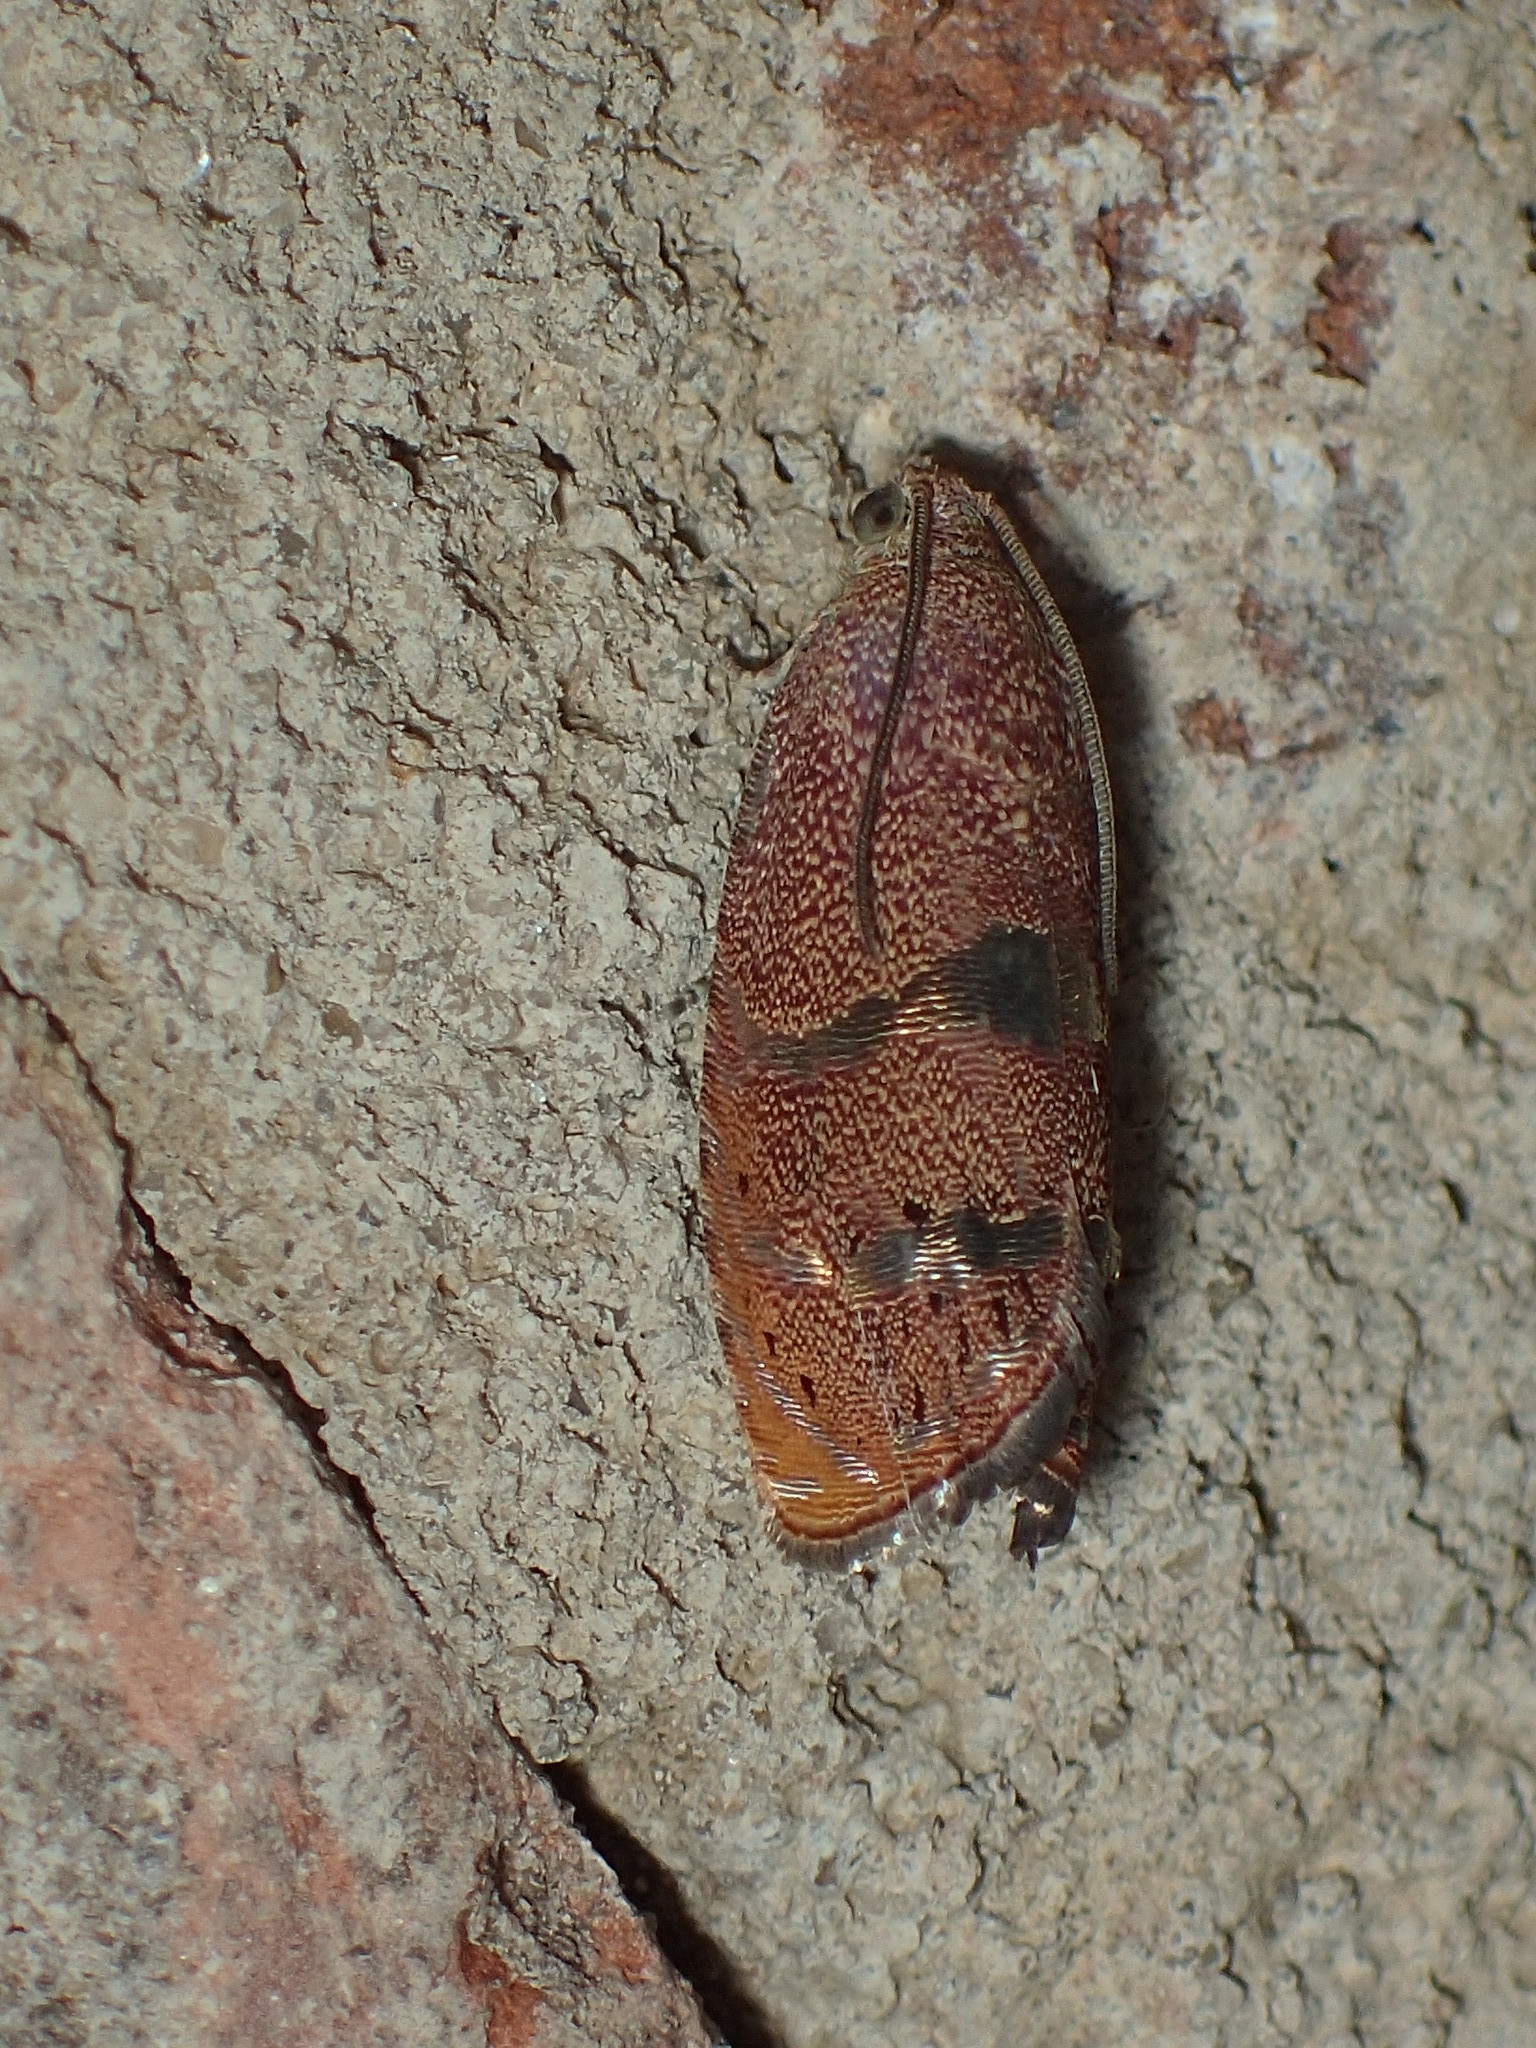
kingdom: Animalia
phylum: Arthropoda
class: Insecta
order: Lepidoptera
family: Tortricidae
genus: Cydia
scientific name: Cydia latiferreana
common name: Filbertworm moth
